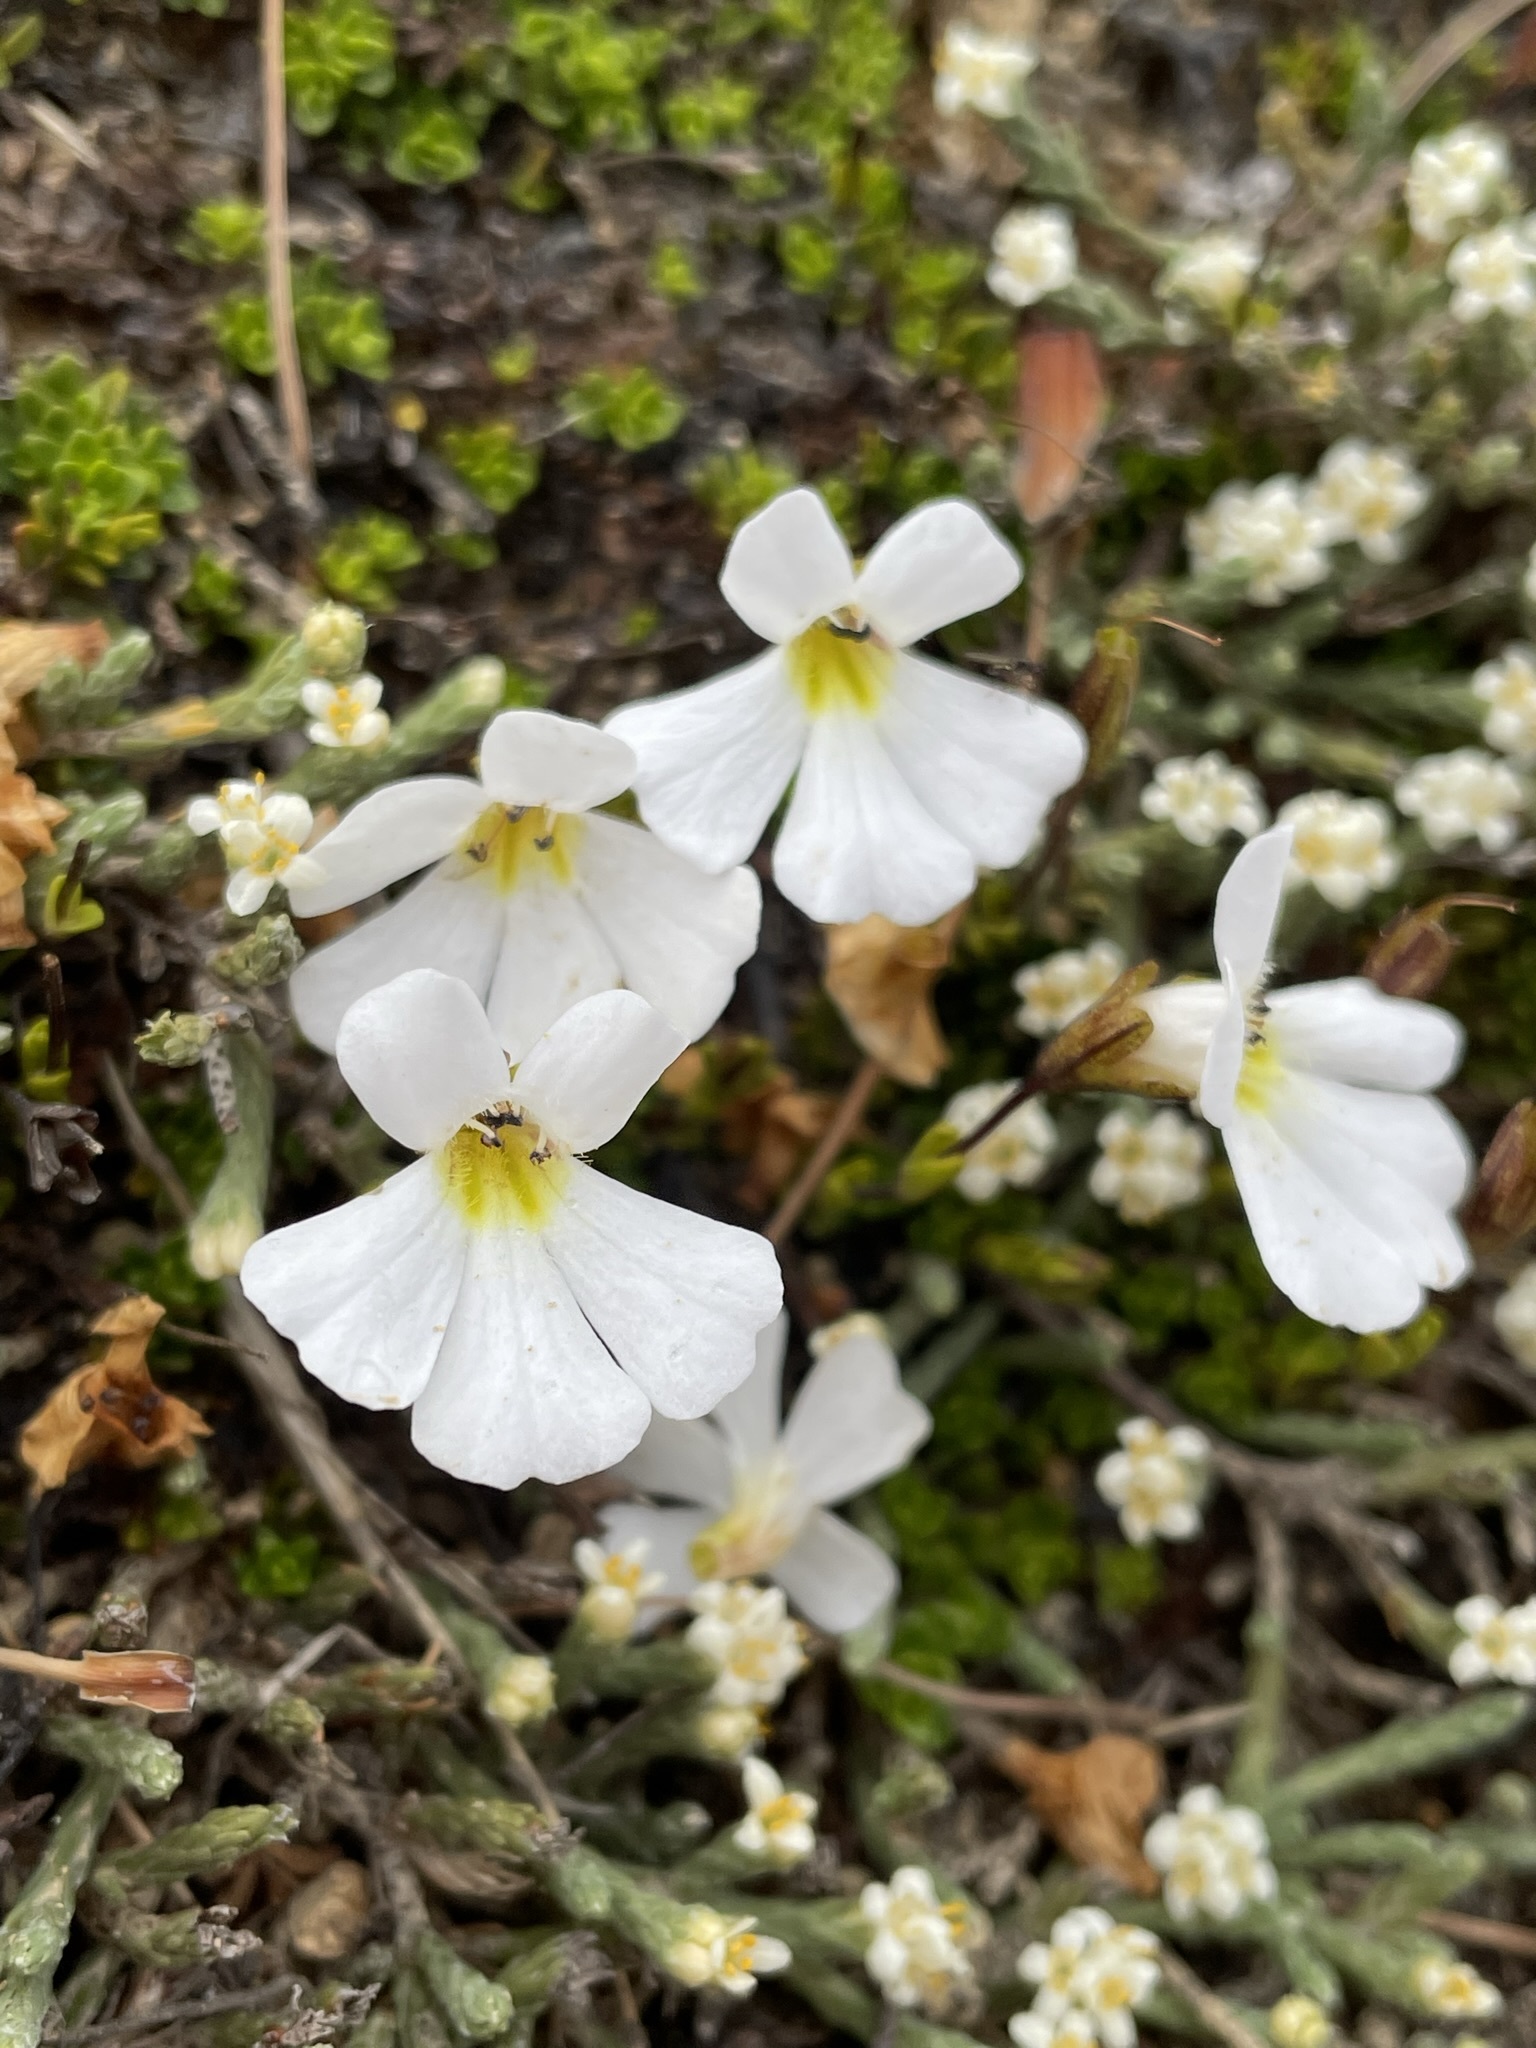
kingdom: Plantae
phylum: Tracheophyta
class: Magnoliopsida
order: Lamiales
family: Plantaginaceae
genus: Ourisia
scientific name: Ourisia caespitosa
